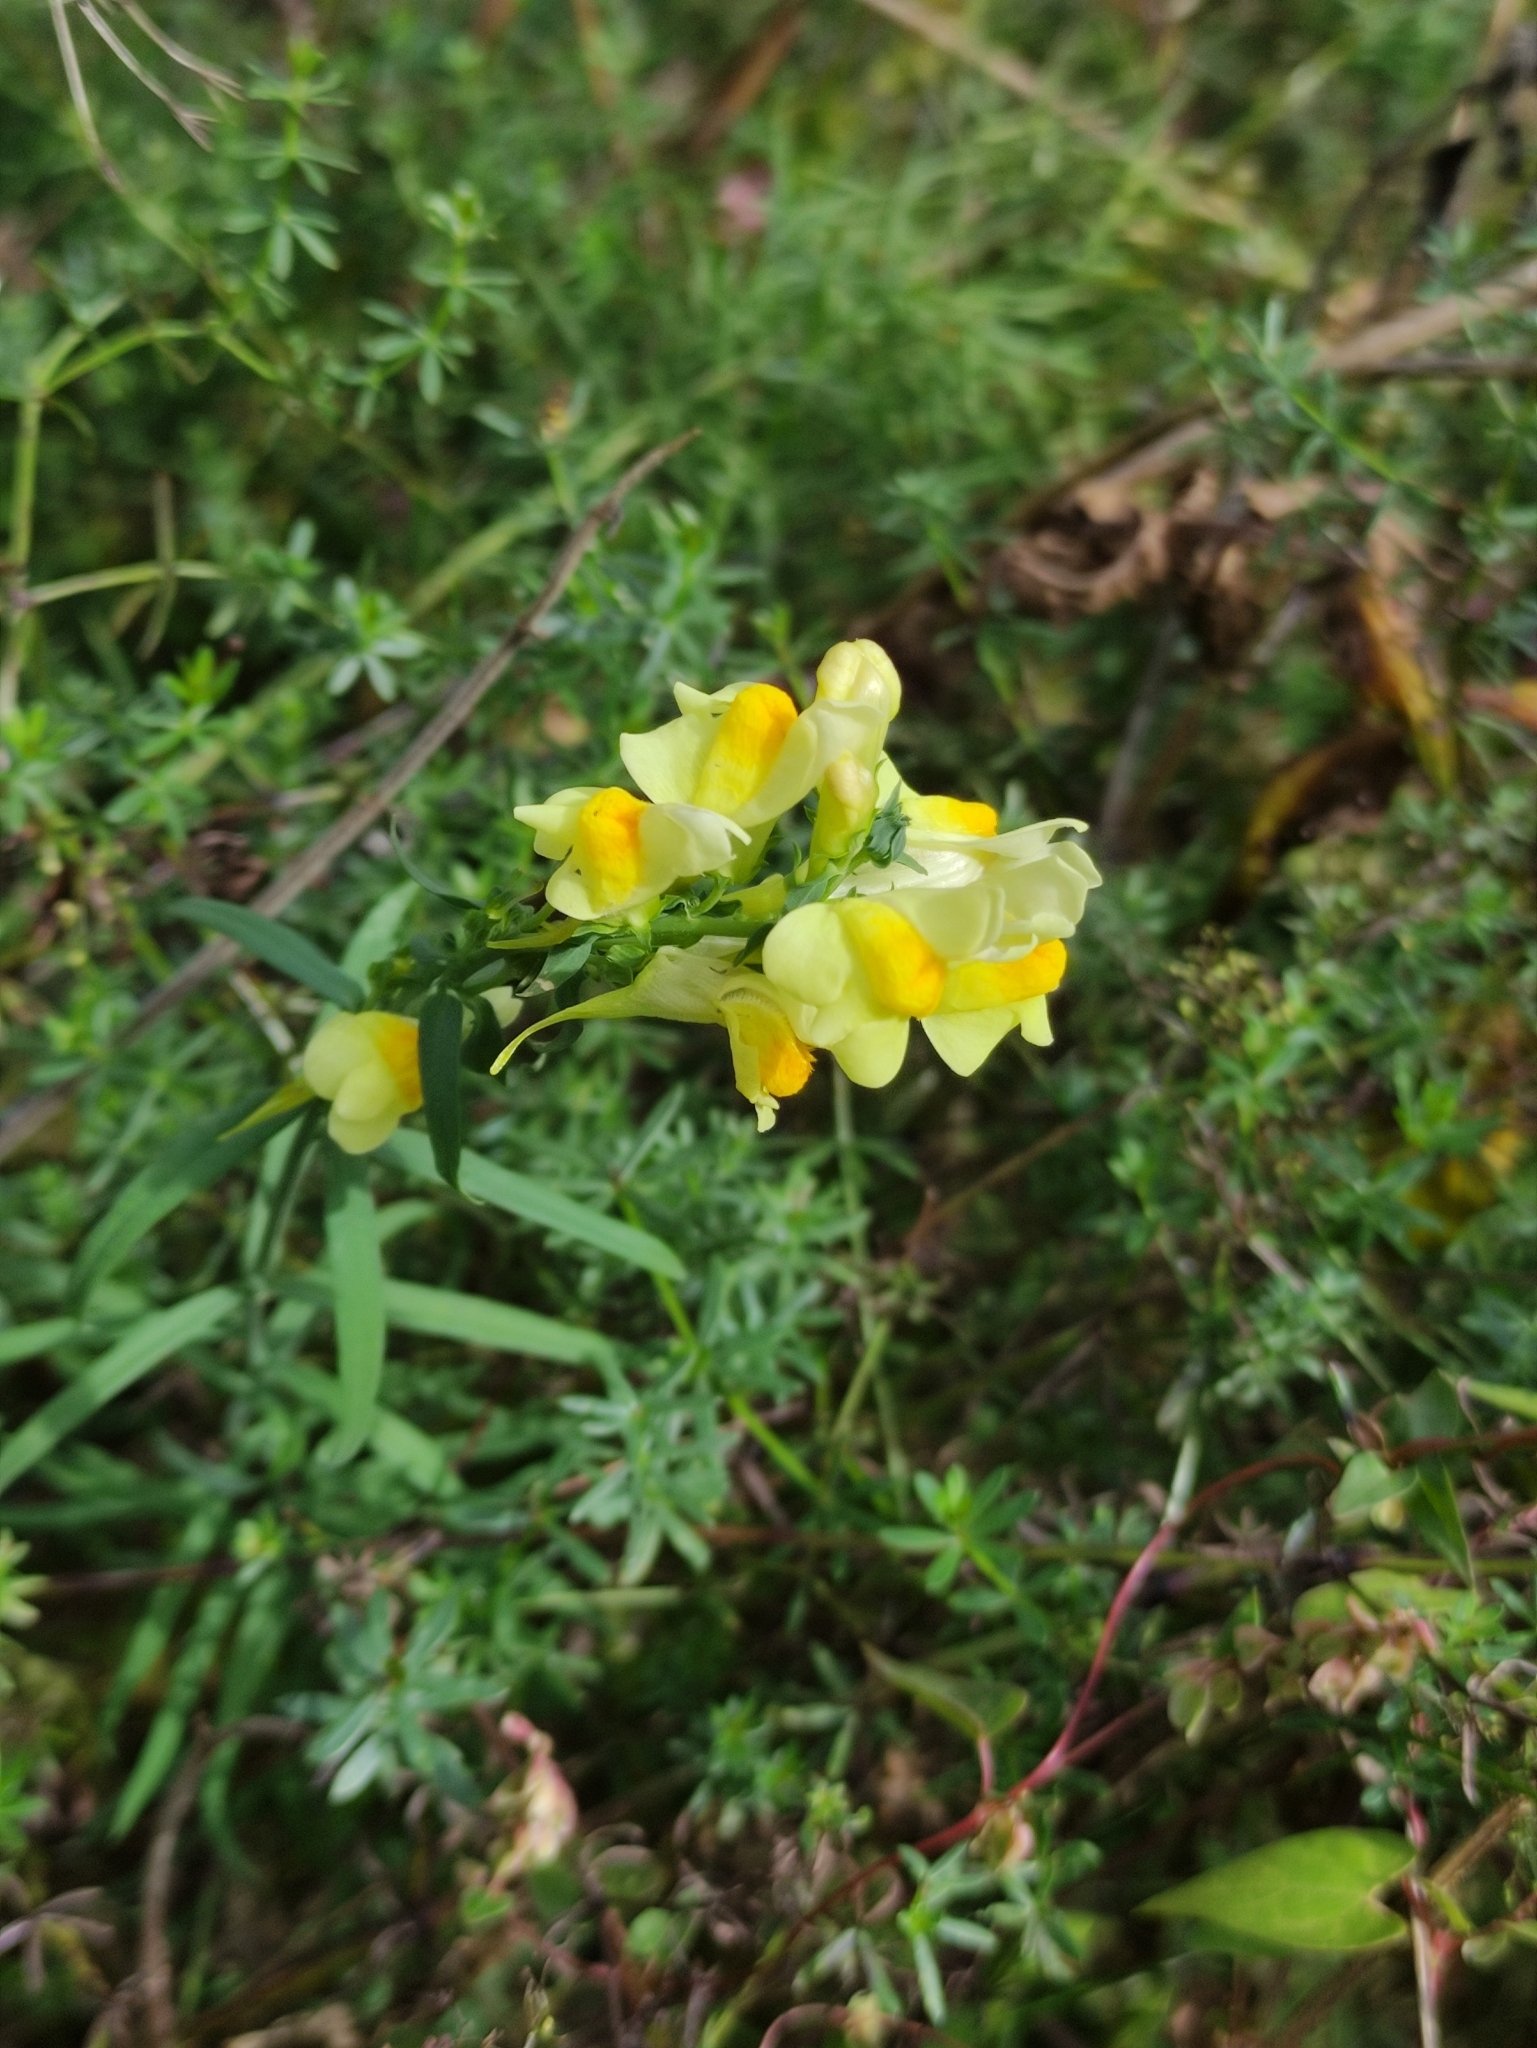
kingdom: Plantae
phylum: Tracheophyta
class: Magnoliopsida
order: Lamiales
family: Plantaginaceae
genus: Linaria
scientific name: Linaria vulgaris
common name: Butter and eggs
